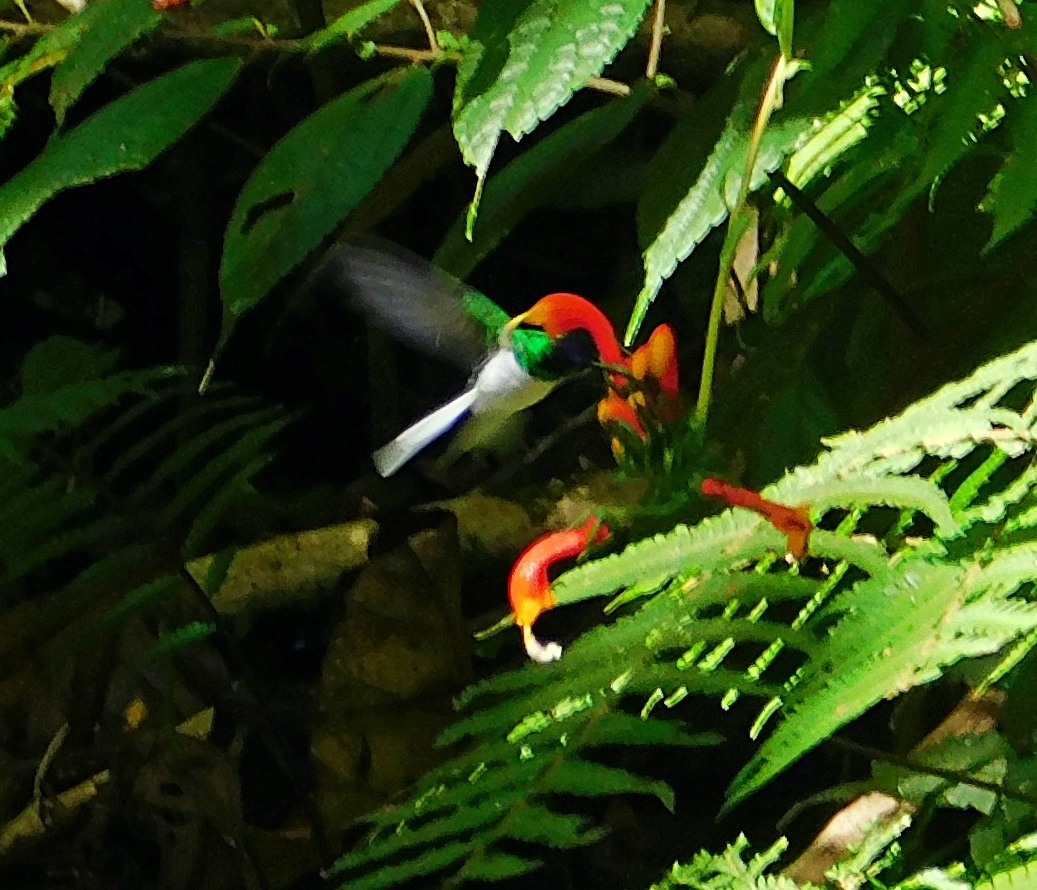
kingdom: Animalia
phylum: Chordata
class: Aves
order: Apodiformes
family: Trochilidae
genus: Heliothryx
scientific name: Heliothryx barroti
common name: Purple-crowned fairy
